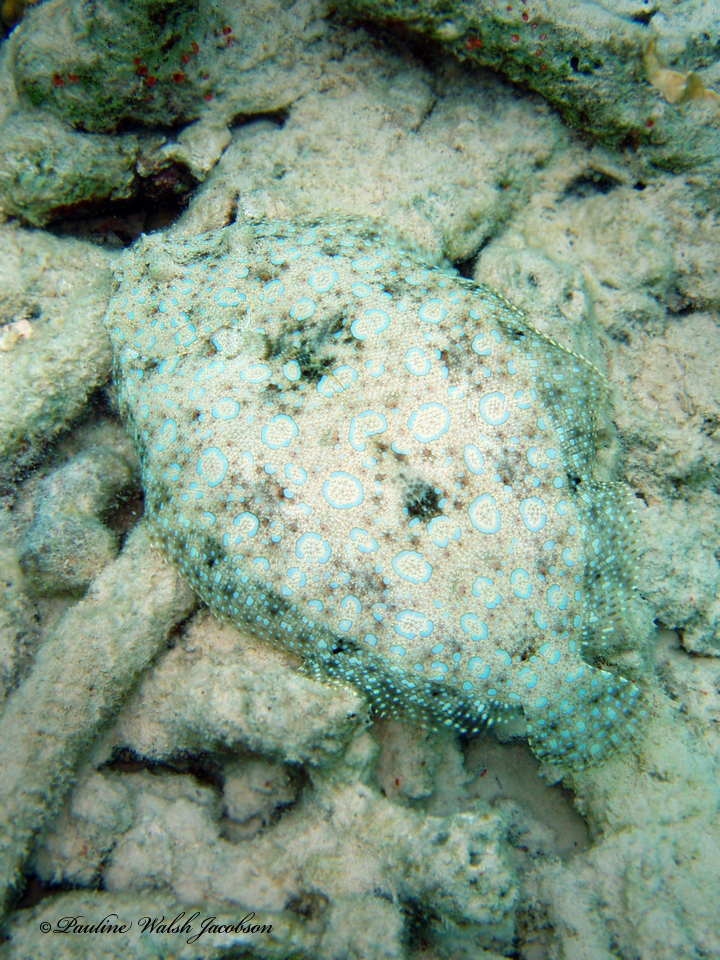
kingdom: Animalia
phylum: Chordata
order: Pleuronectiformes
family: Bothidae
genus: Bothus
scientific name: Bothus lunatus
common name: Peacock flounder
